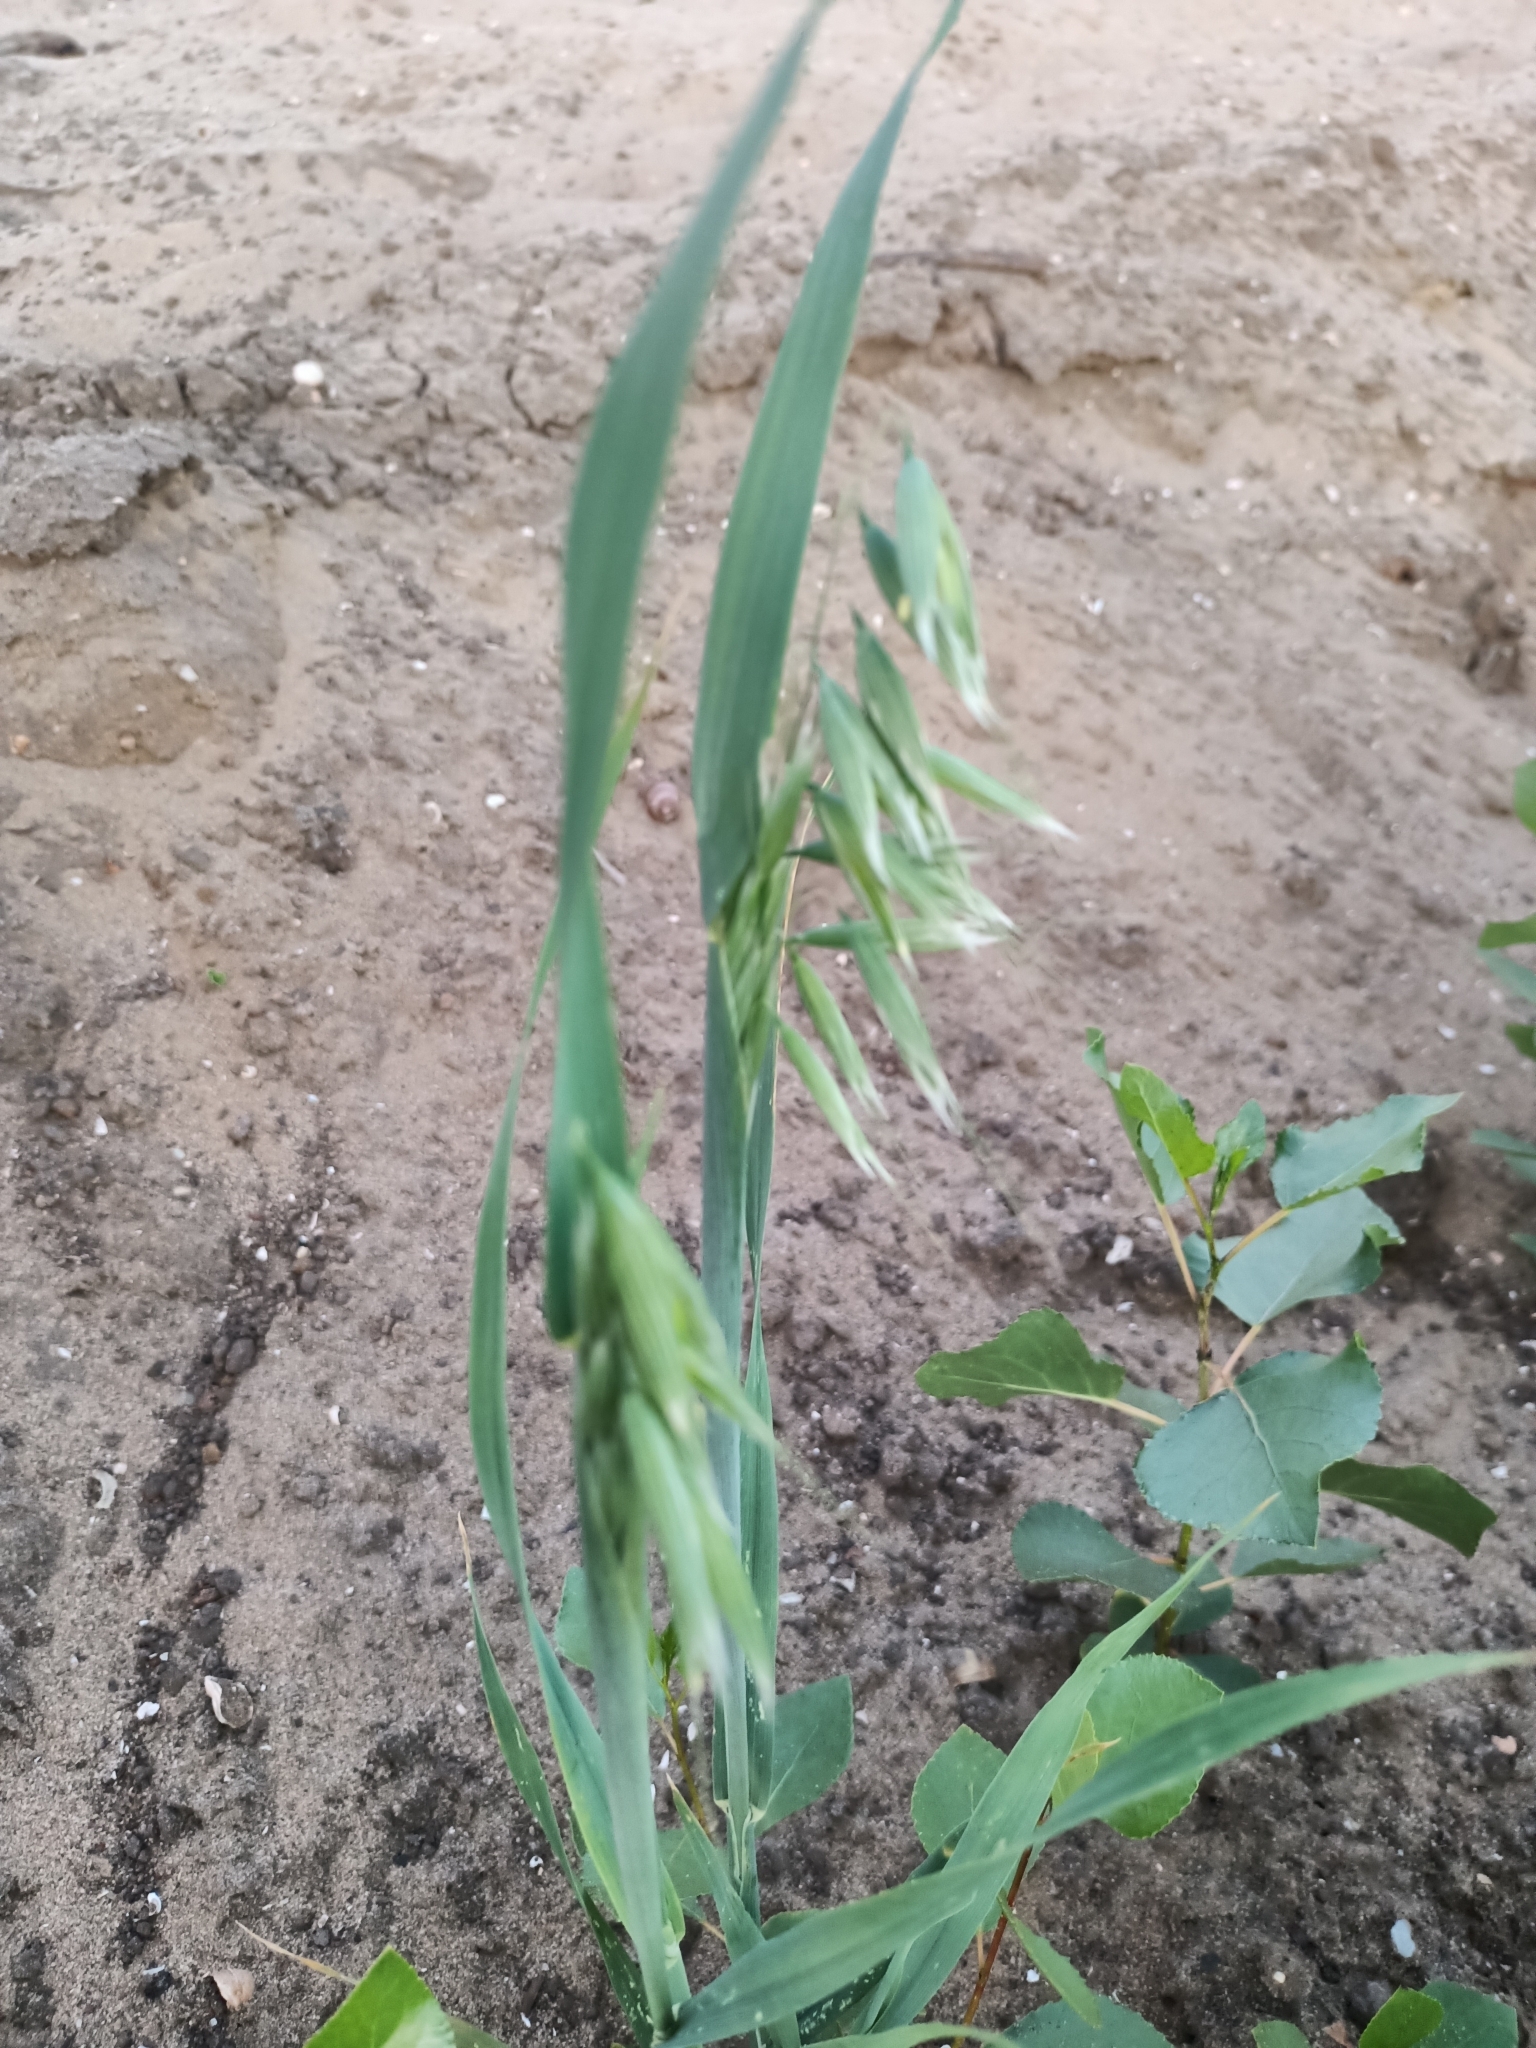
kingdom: Plantae
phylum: Tracheophyta
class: Liliopsida
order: Poales
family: Poaceae
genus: Avena
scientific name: Avena fatua
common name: Wild oat
